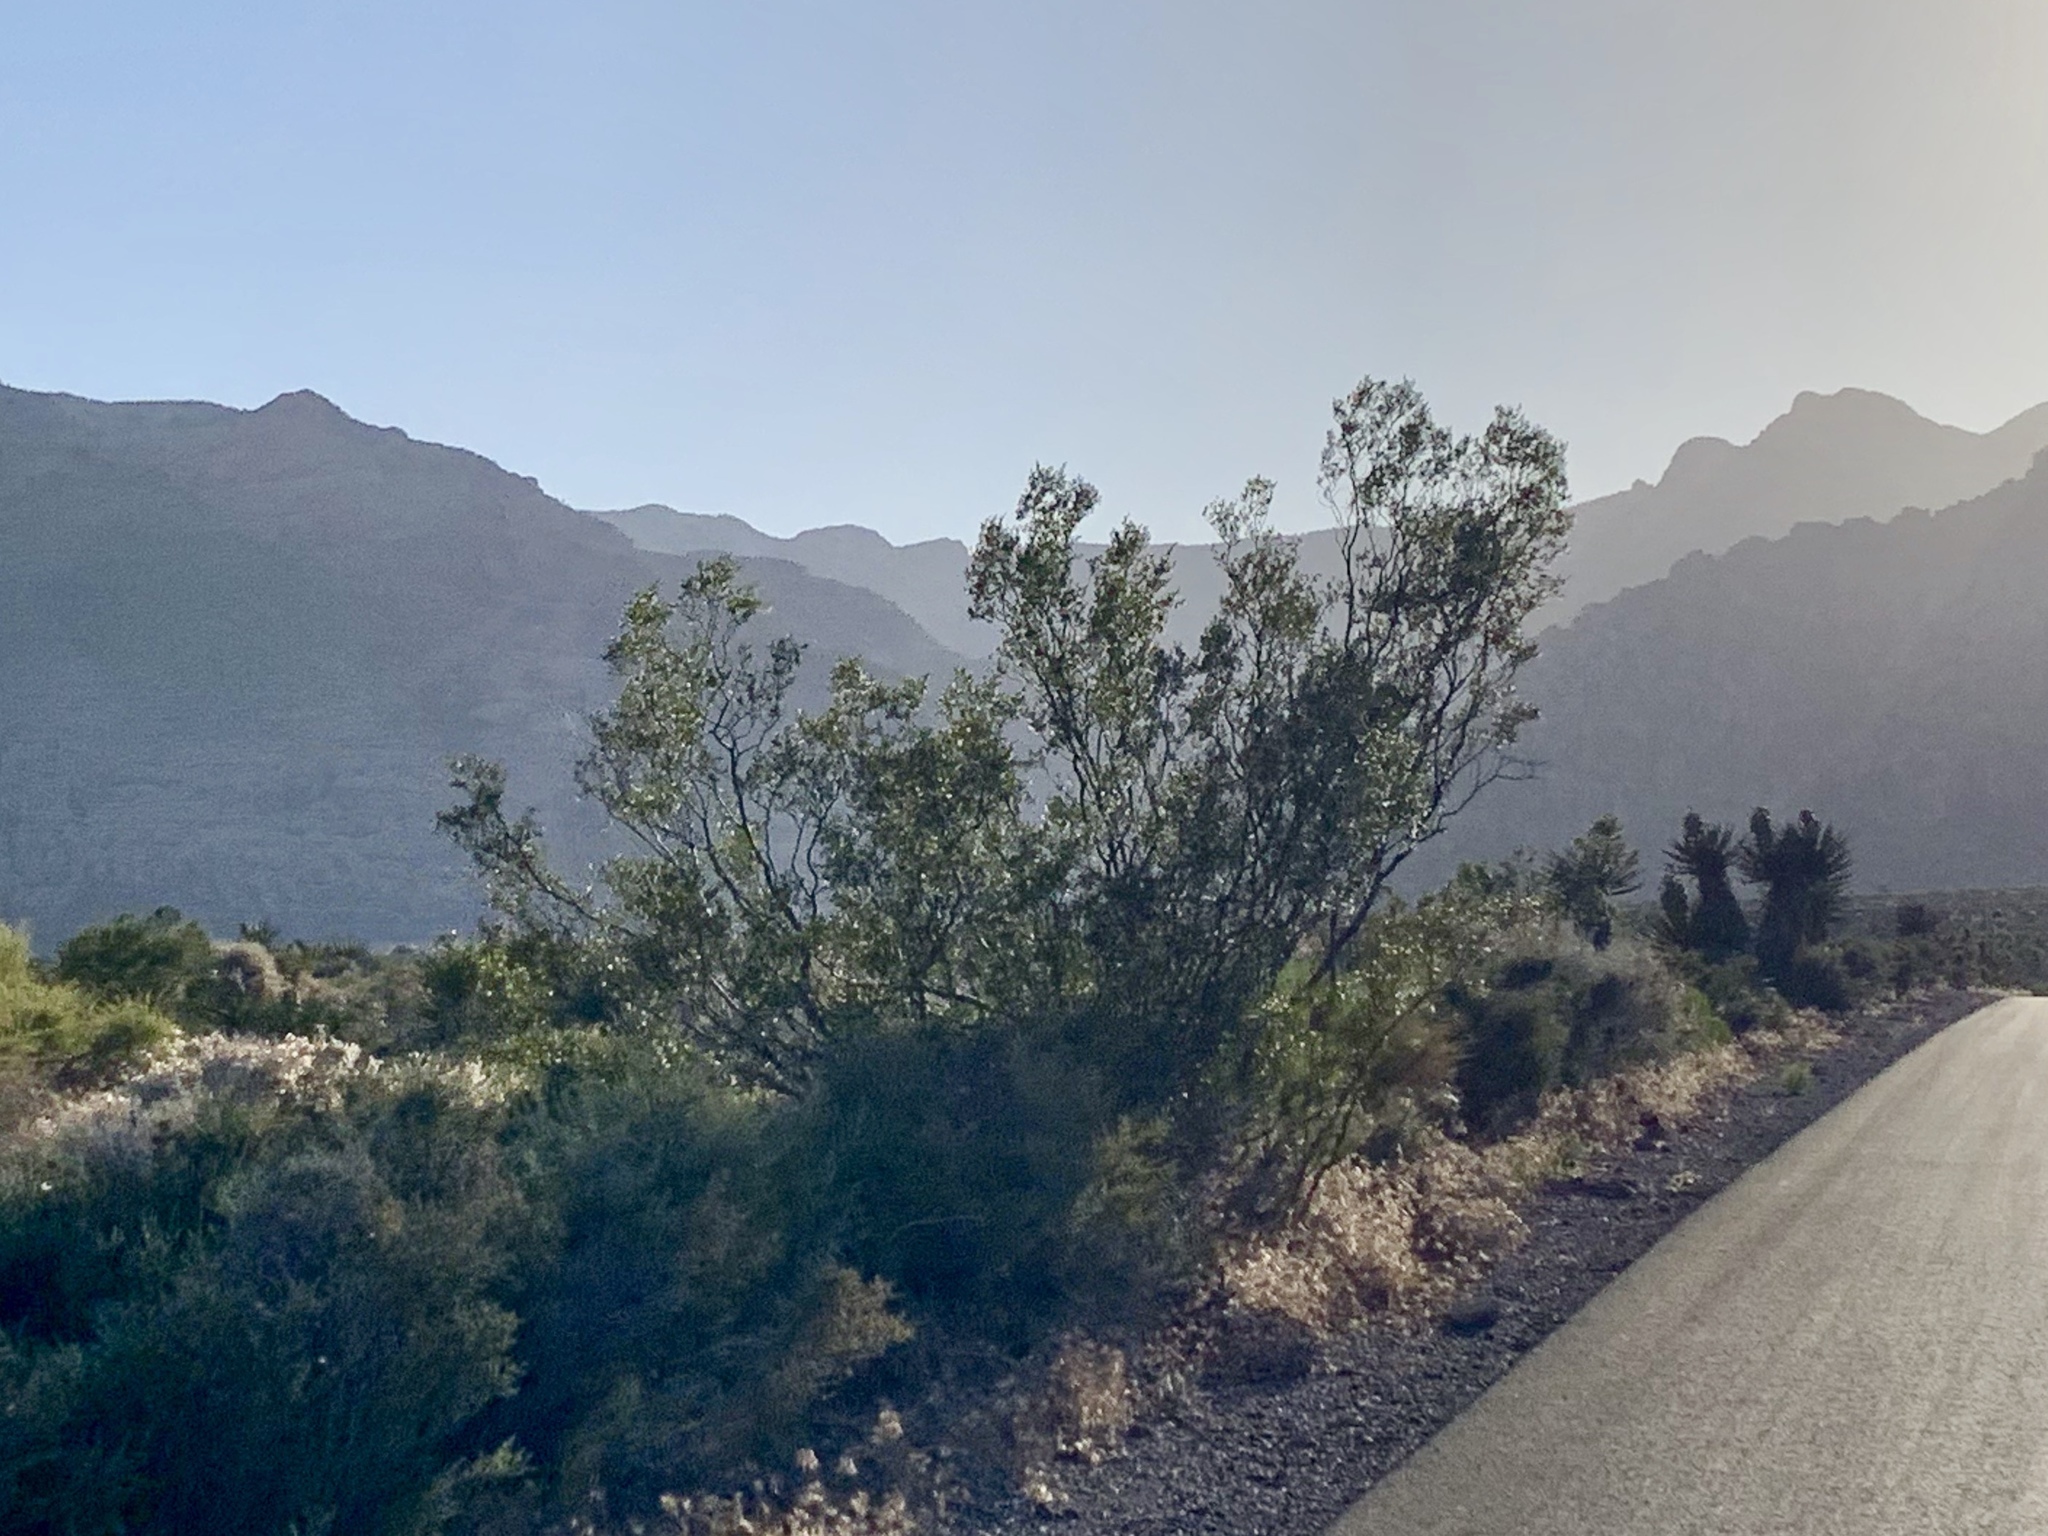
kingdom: Plantae
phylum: Tracheophyta
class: Magnoliopsida
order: Zygophyllales
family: Zygophyllaceae
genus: Larrea
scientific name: Larrea tridentata
